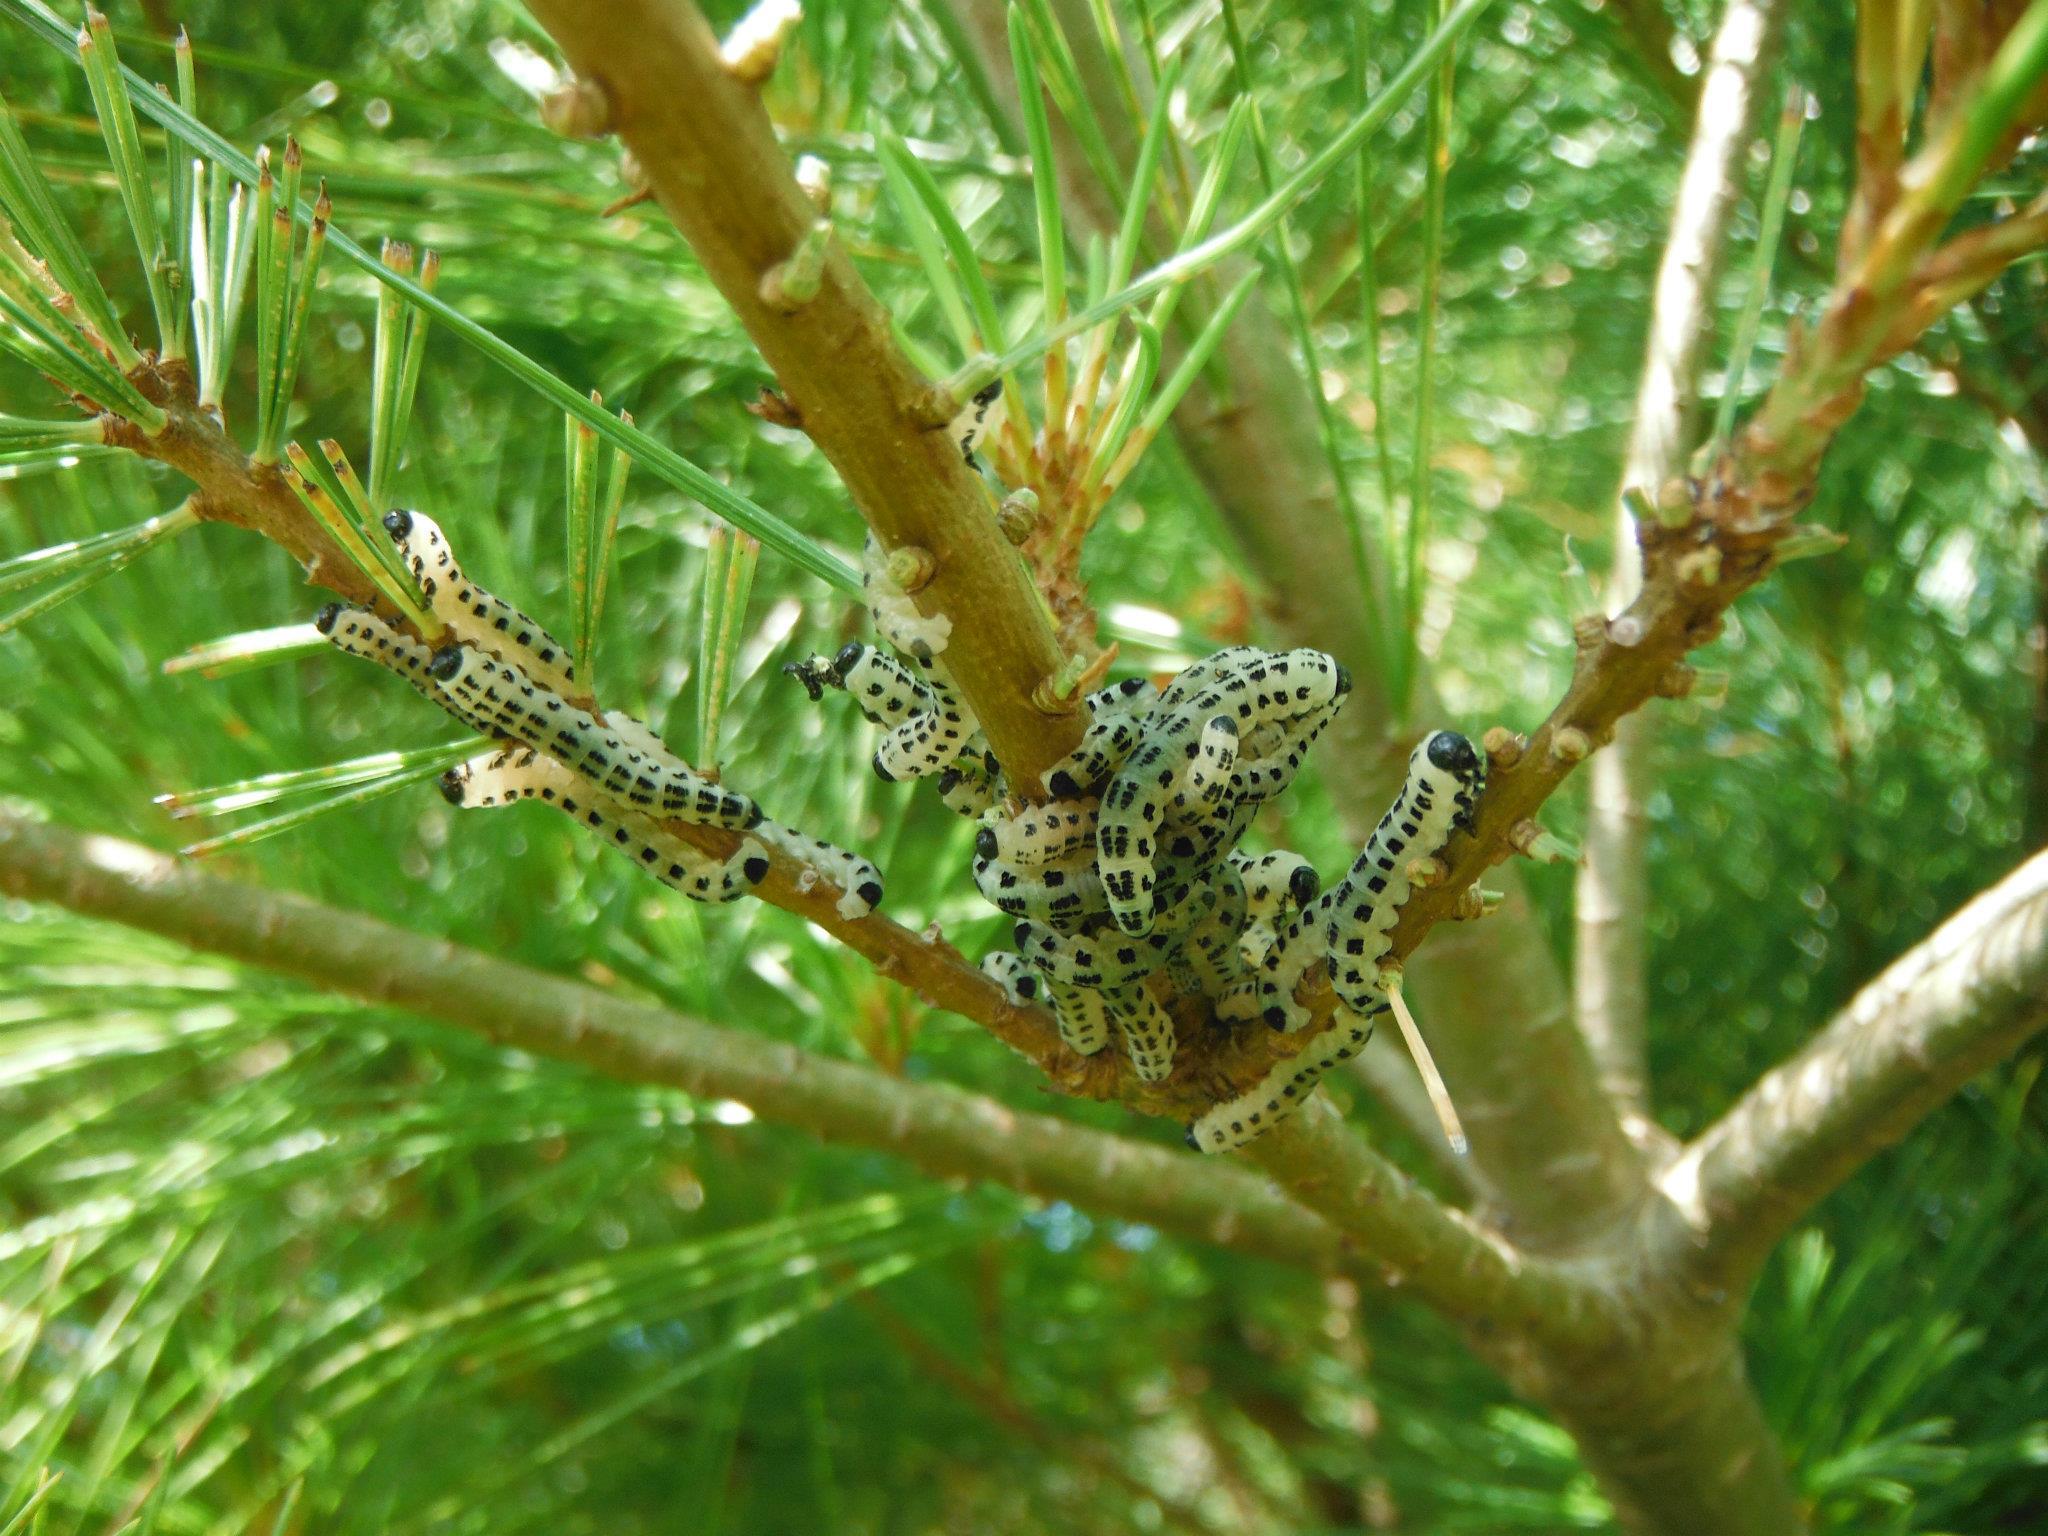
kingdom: Animalia
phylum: Arthropoda
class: Insecta
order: Hymenoptera
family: Diprionidae
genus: Neodiprion
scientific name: Neodiprion pinetum
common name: White pine sawfly
